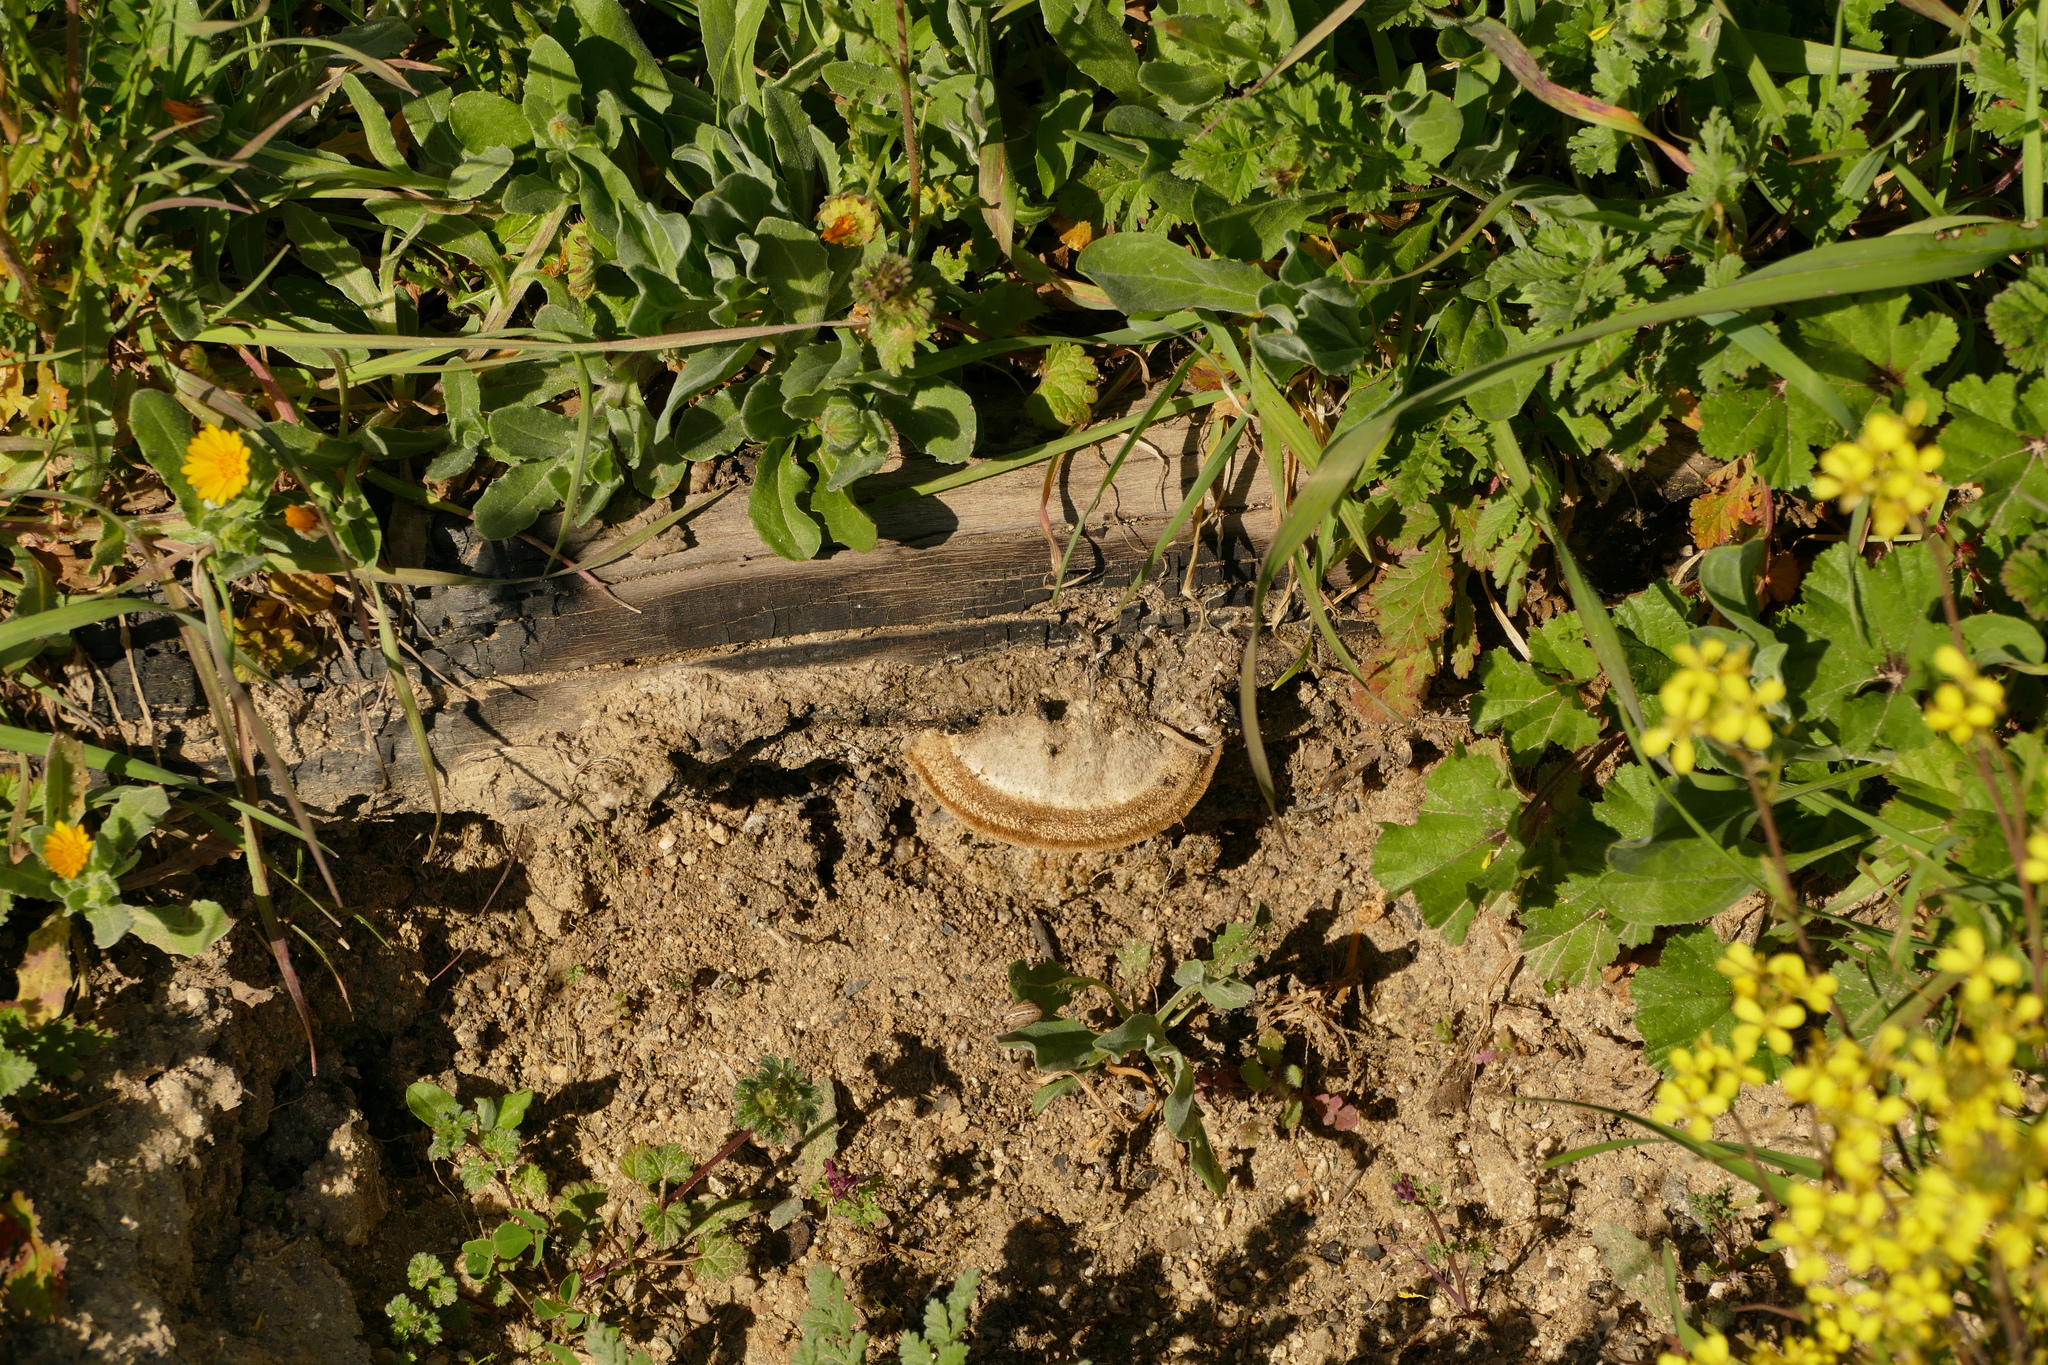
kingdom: Fungi
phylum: Basidiomycota
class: Agaricomycetes
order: Polyporales
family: Polyporaceae
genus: Trametes
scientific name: Trametes hirsuta
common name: Hairy bracket
